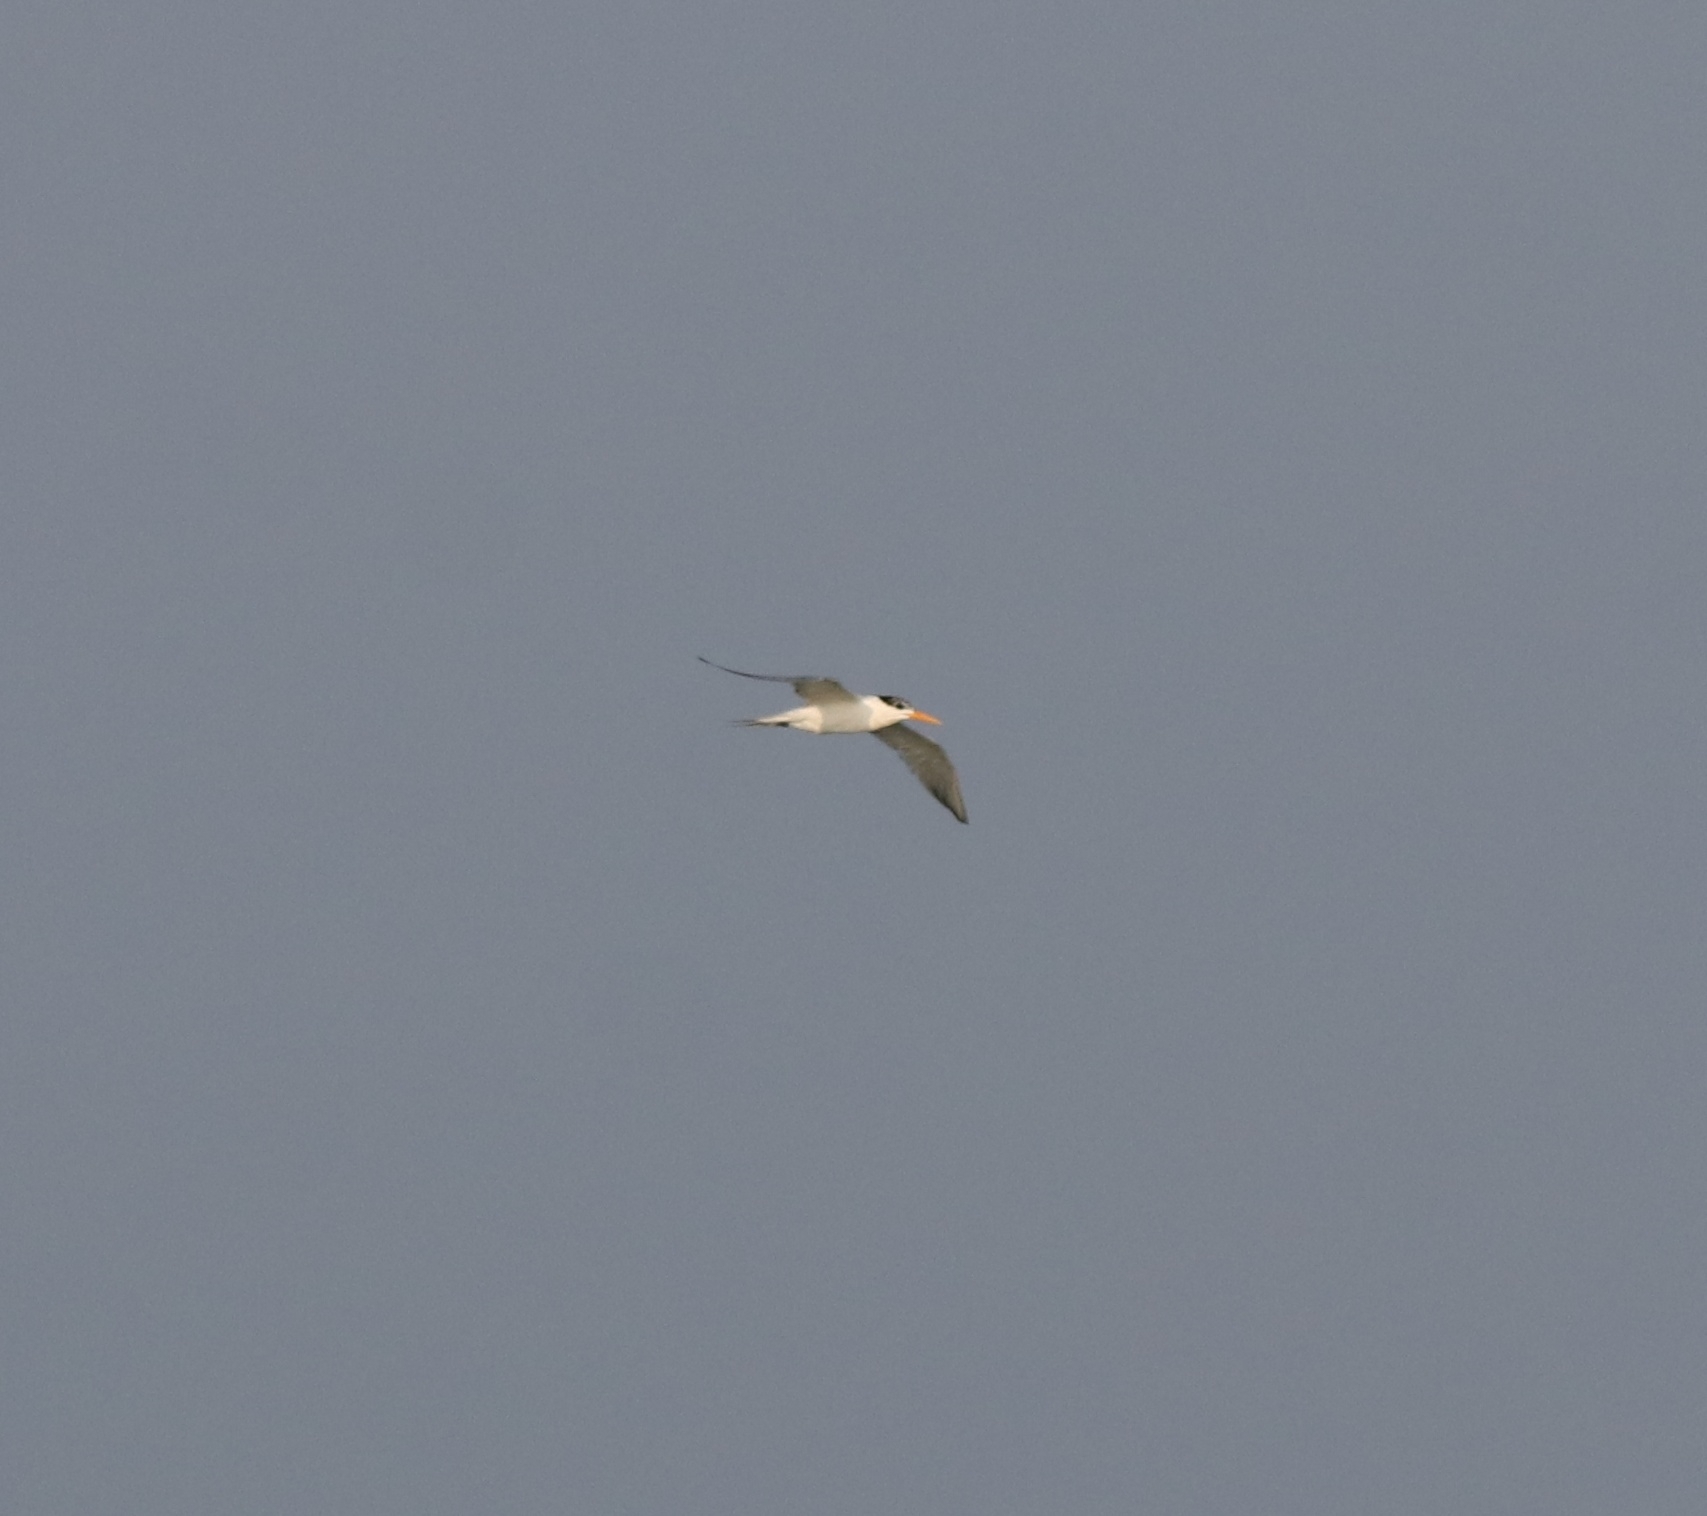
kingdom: Animalia
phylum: Chordata
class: Aves
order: Charadriiformes
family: Laridae
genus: Thalasseus
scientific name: Thalasseus bengalensis
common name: Lesser crested tern
